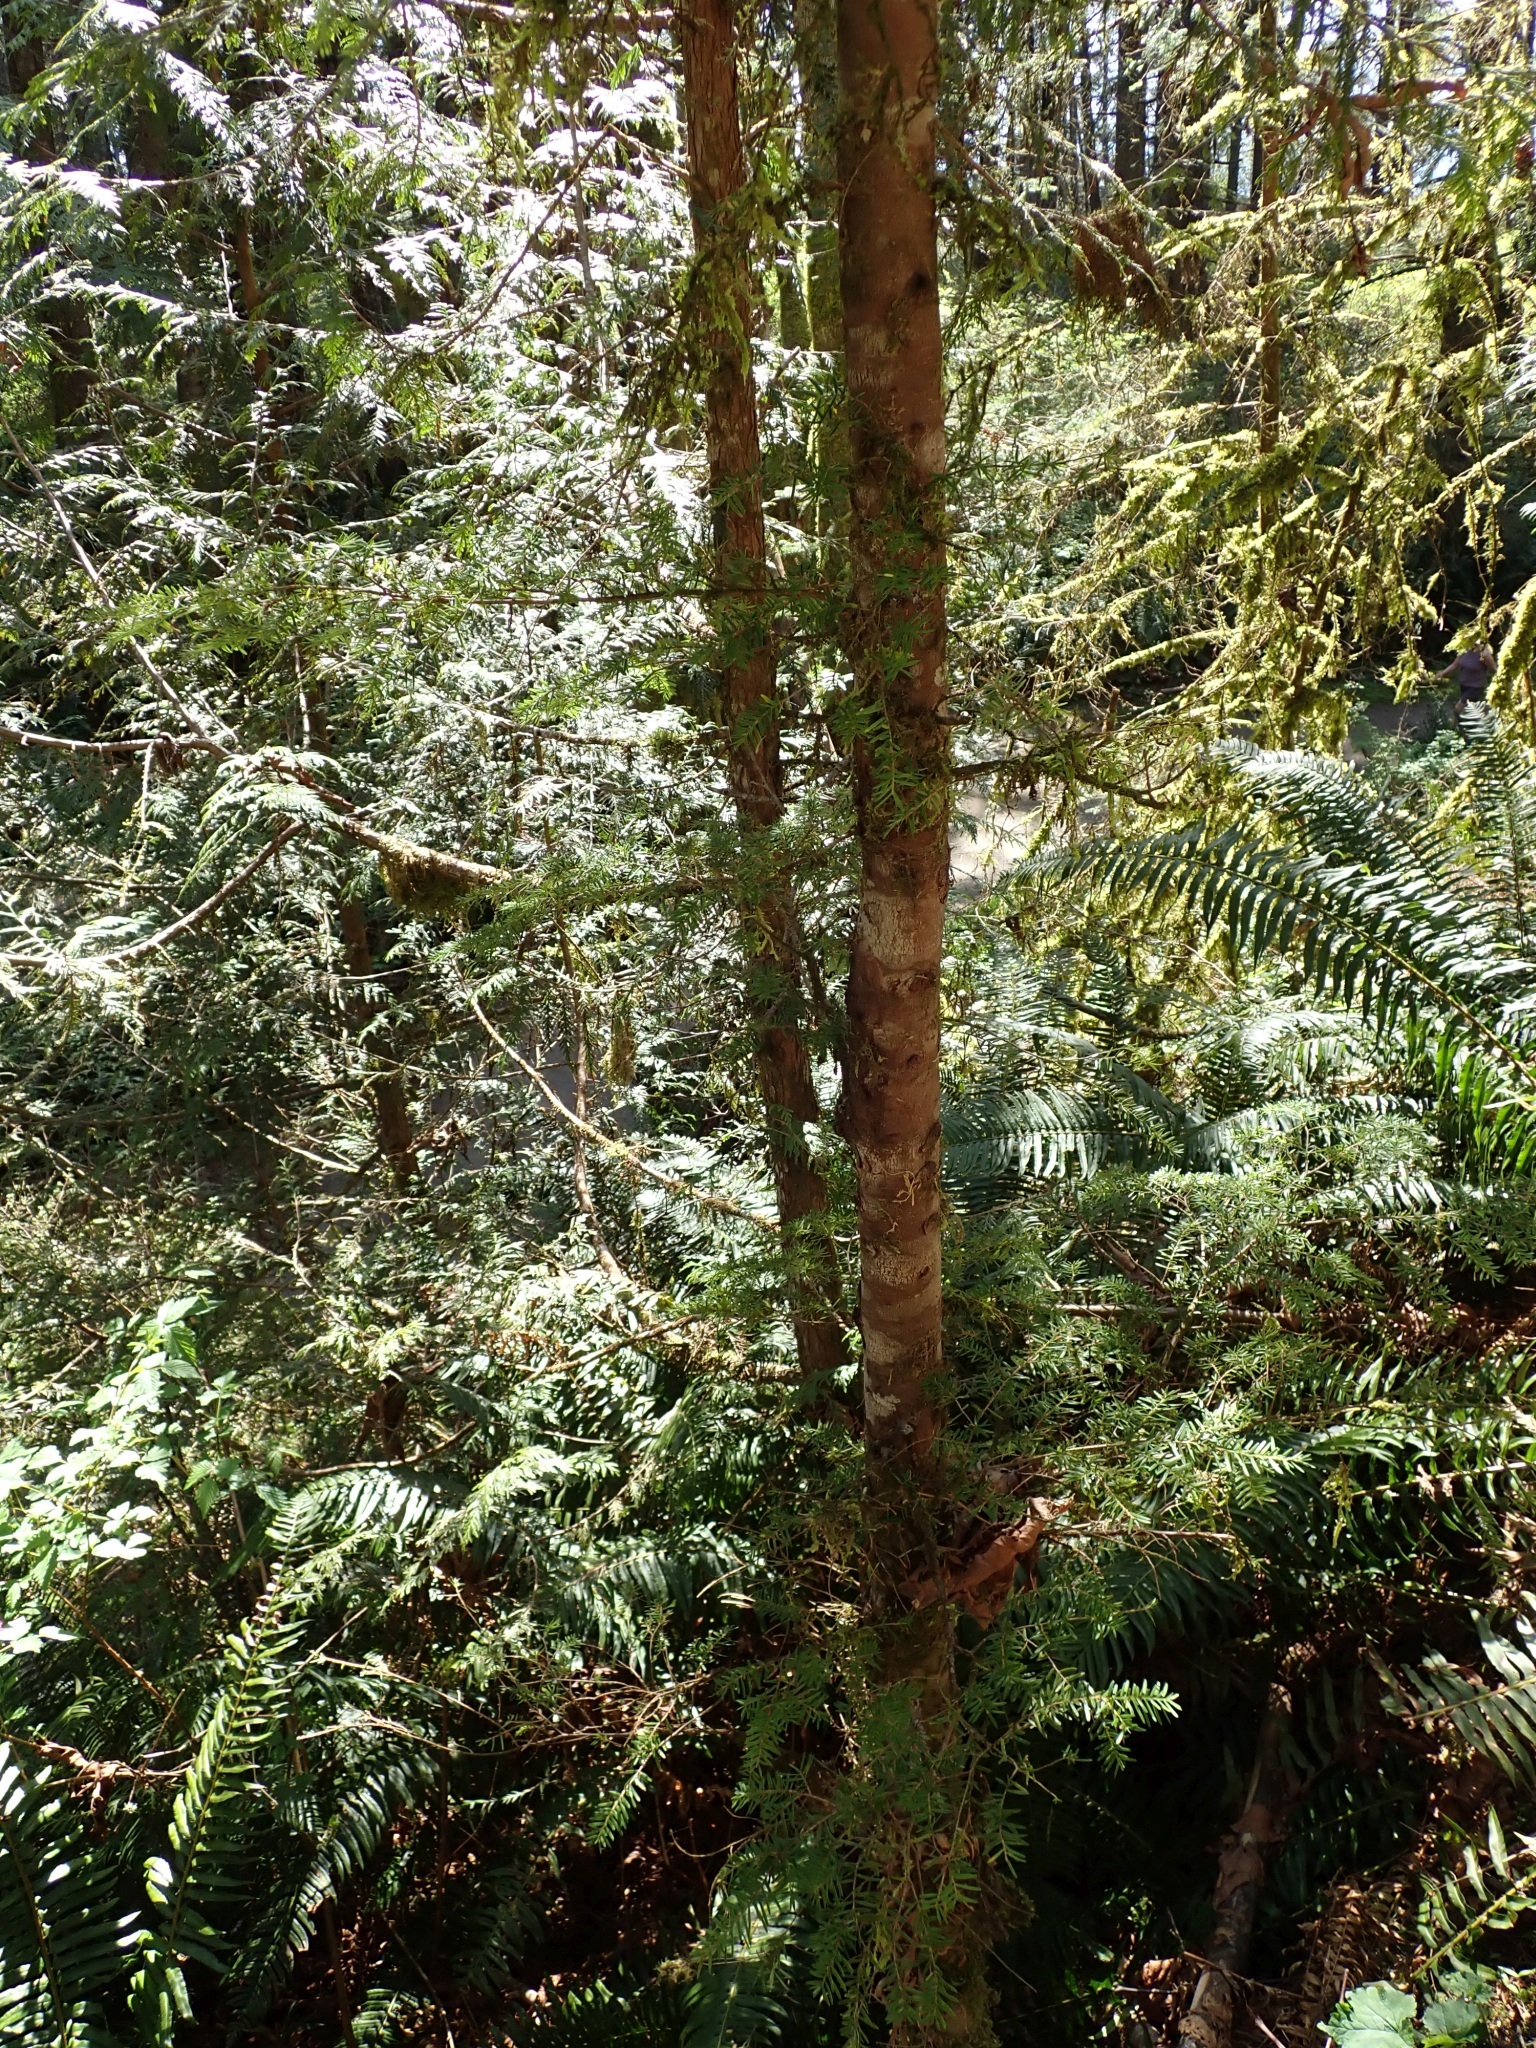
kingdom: Plantae
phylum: Tracheophyta
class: Pinopsida
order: Pinales
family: Pinaceae
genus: Tsuga
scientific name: Tsuga heterophylla
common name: Western hemlock
